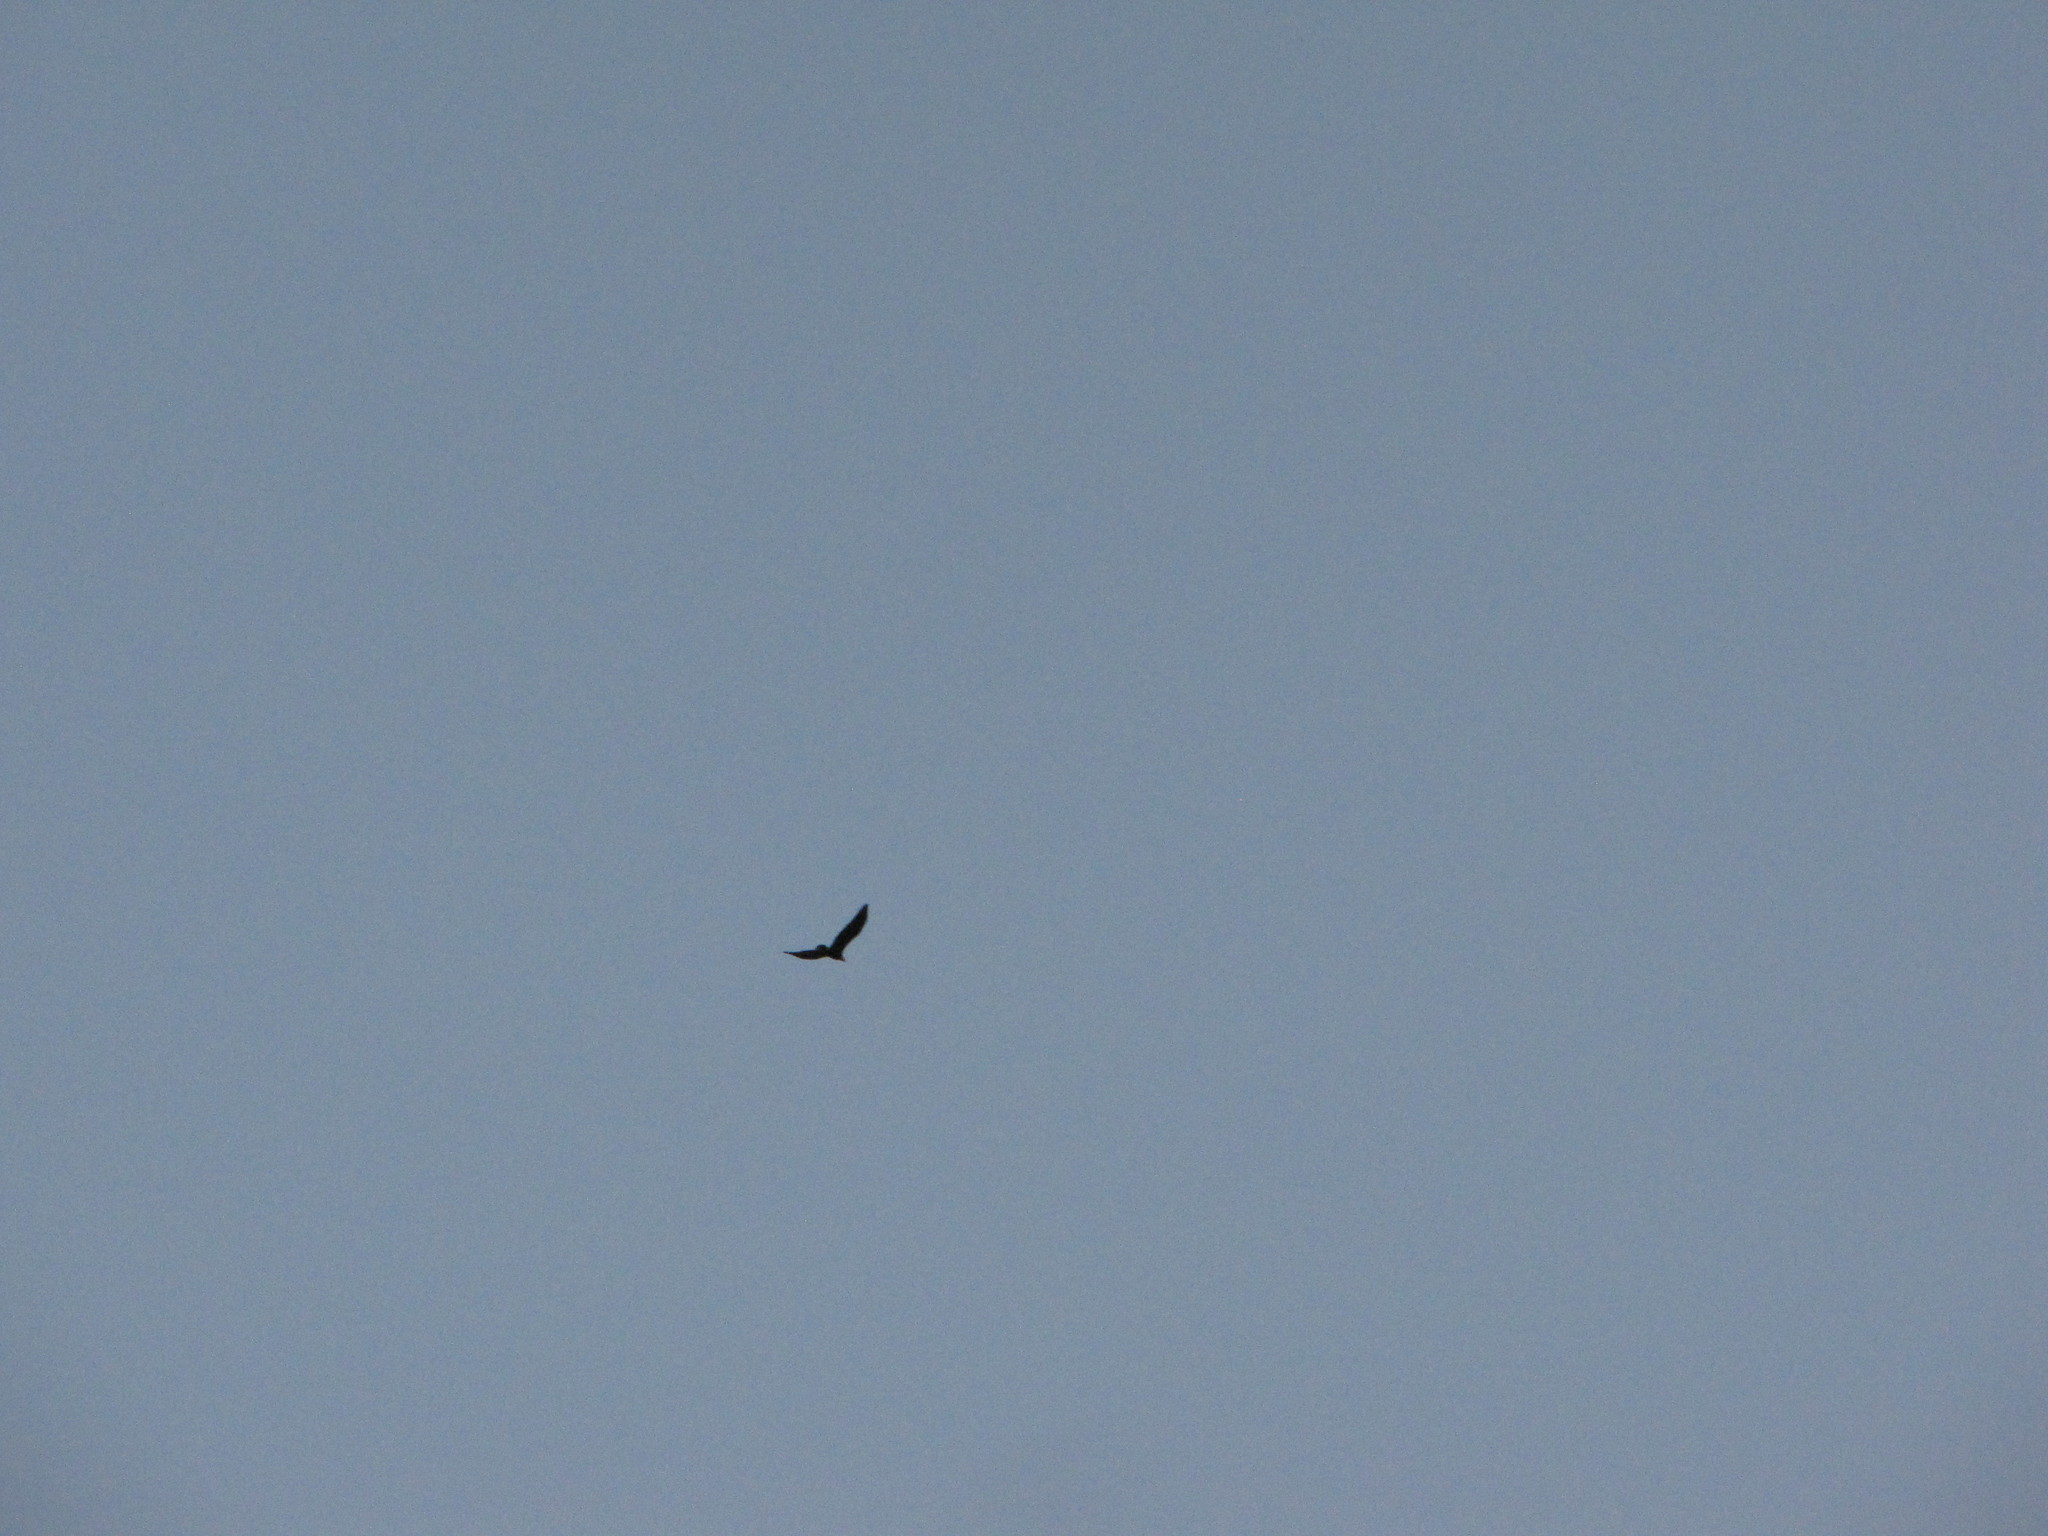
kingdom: Animalia
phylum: Chordata
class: Aves
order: Accipitriformes
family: Accipitridae
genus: Haliaeetus
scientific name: Haliaeetus leucocephalus
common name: Bald eagle
